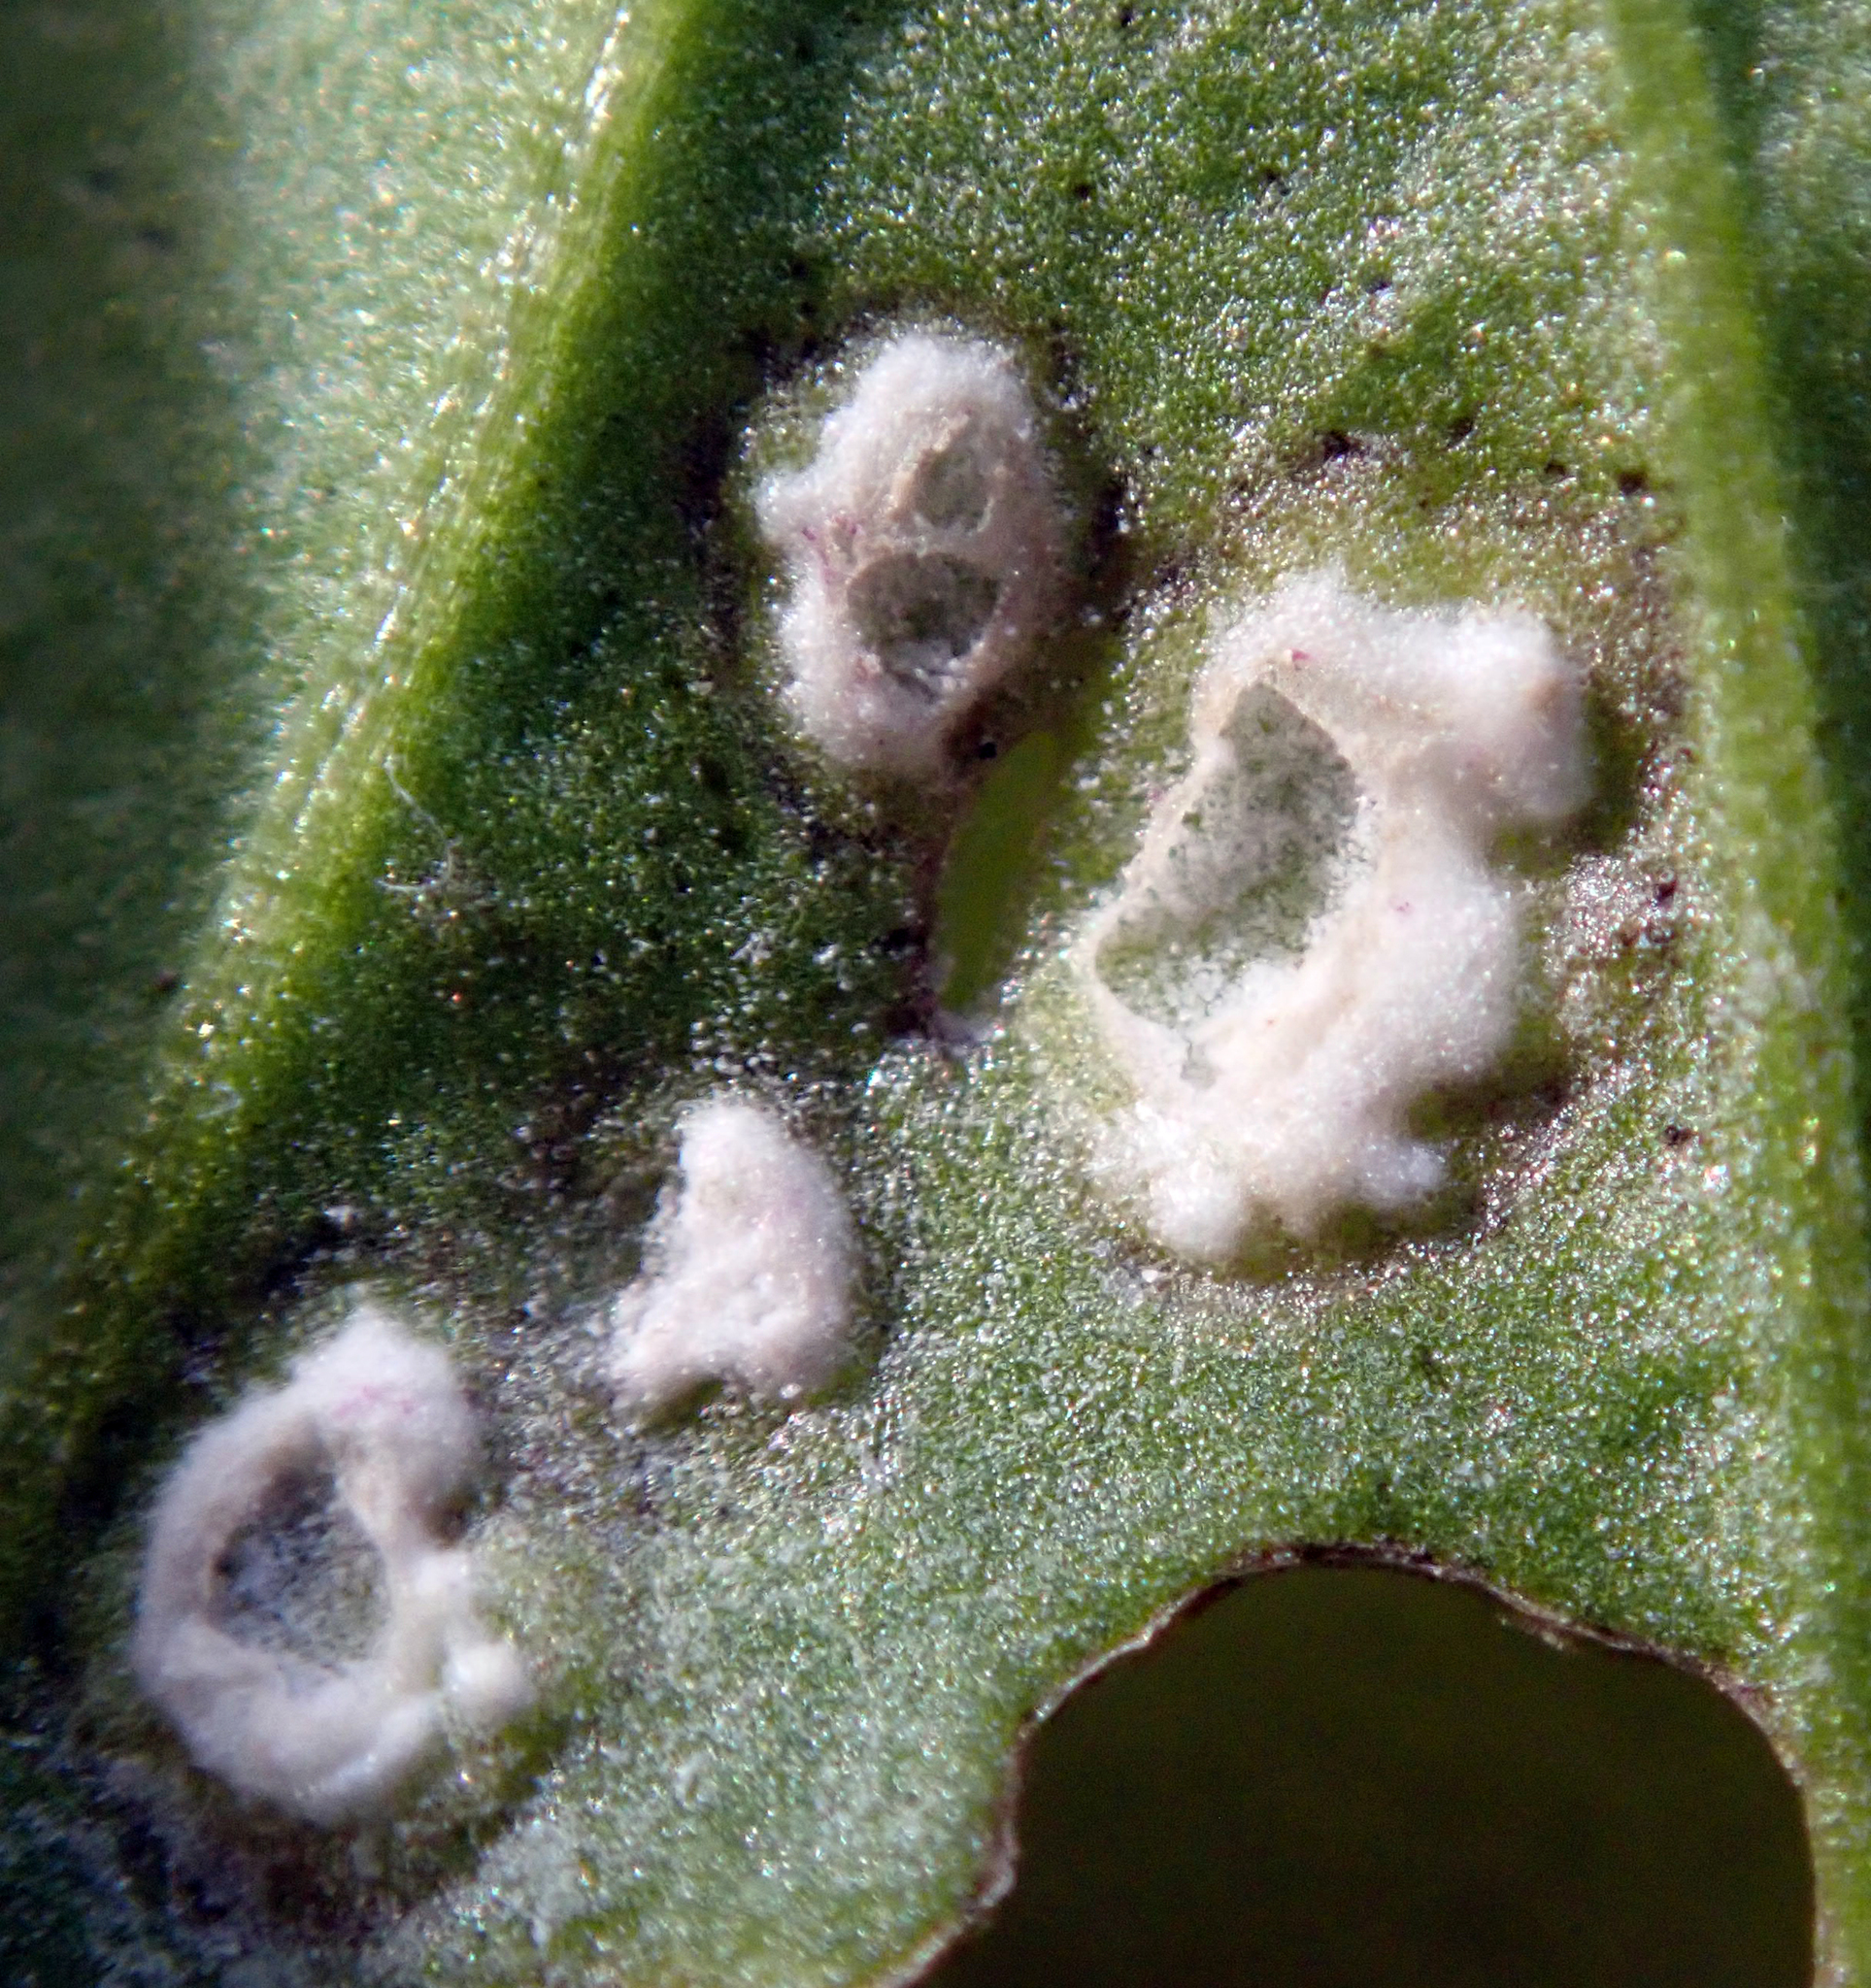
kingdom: Chromista
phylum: Oomycota
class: Peronosporea
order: Albuginales
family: Albuginaceae
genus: Albugo
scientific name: Albugo candida
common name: Crucifer white blister
